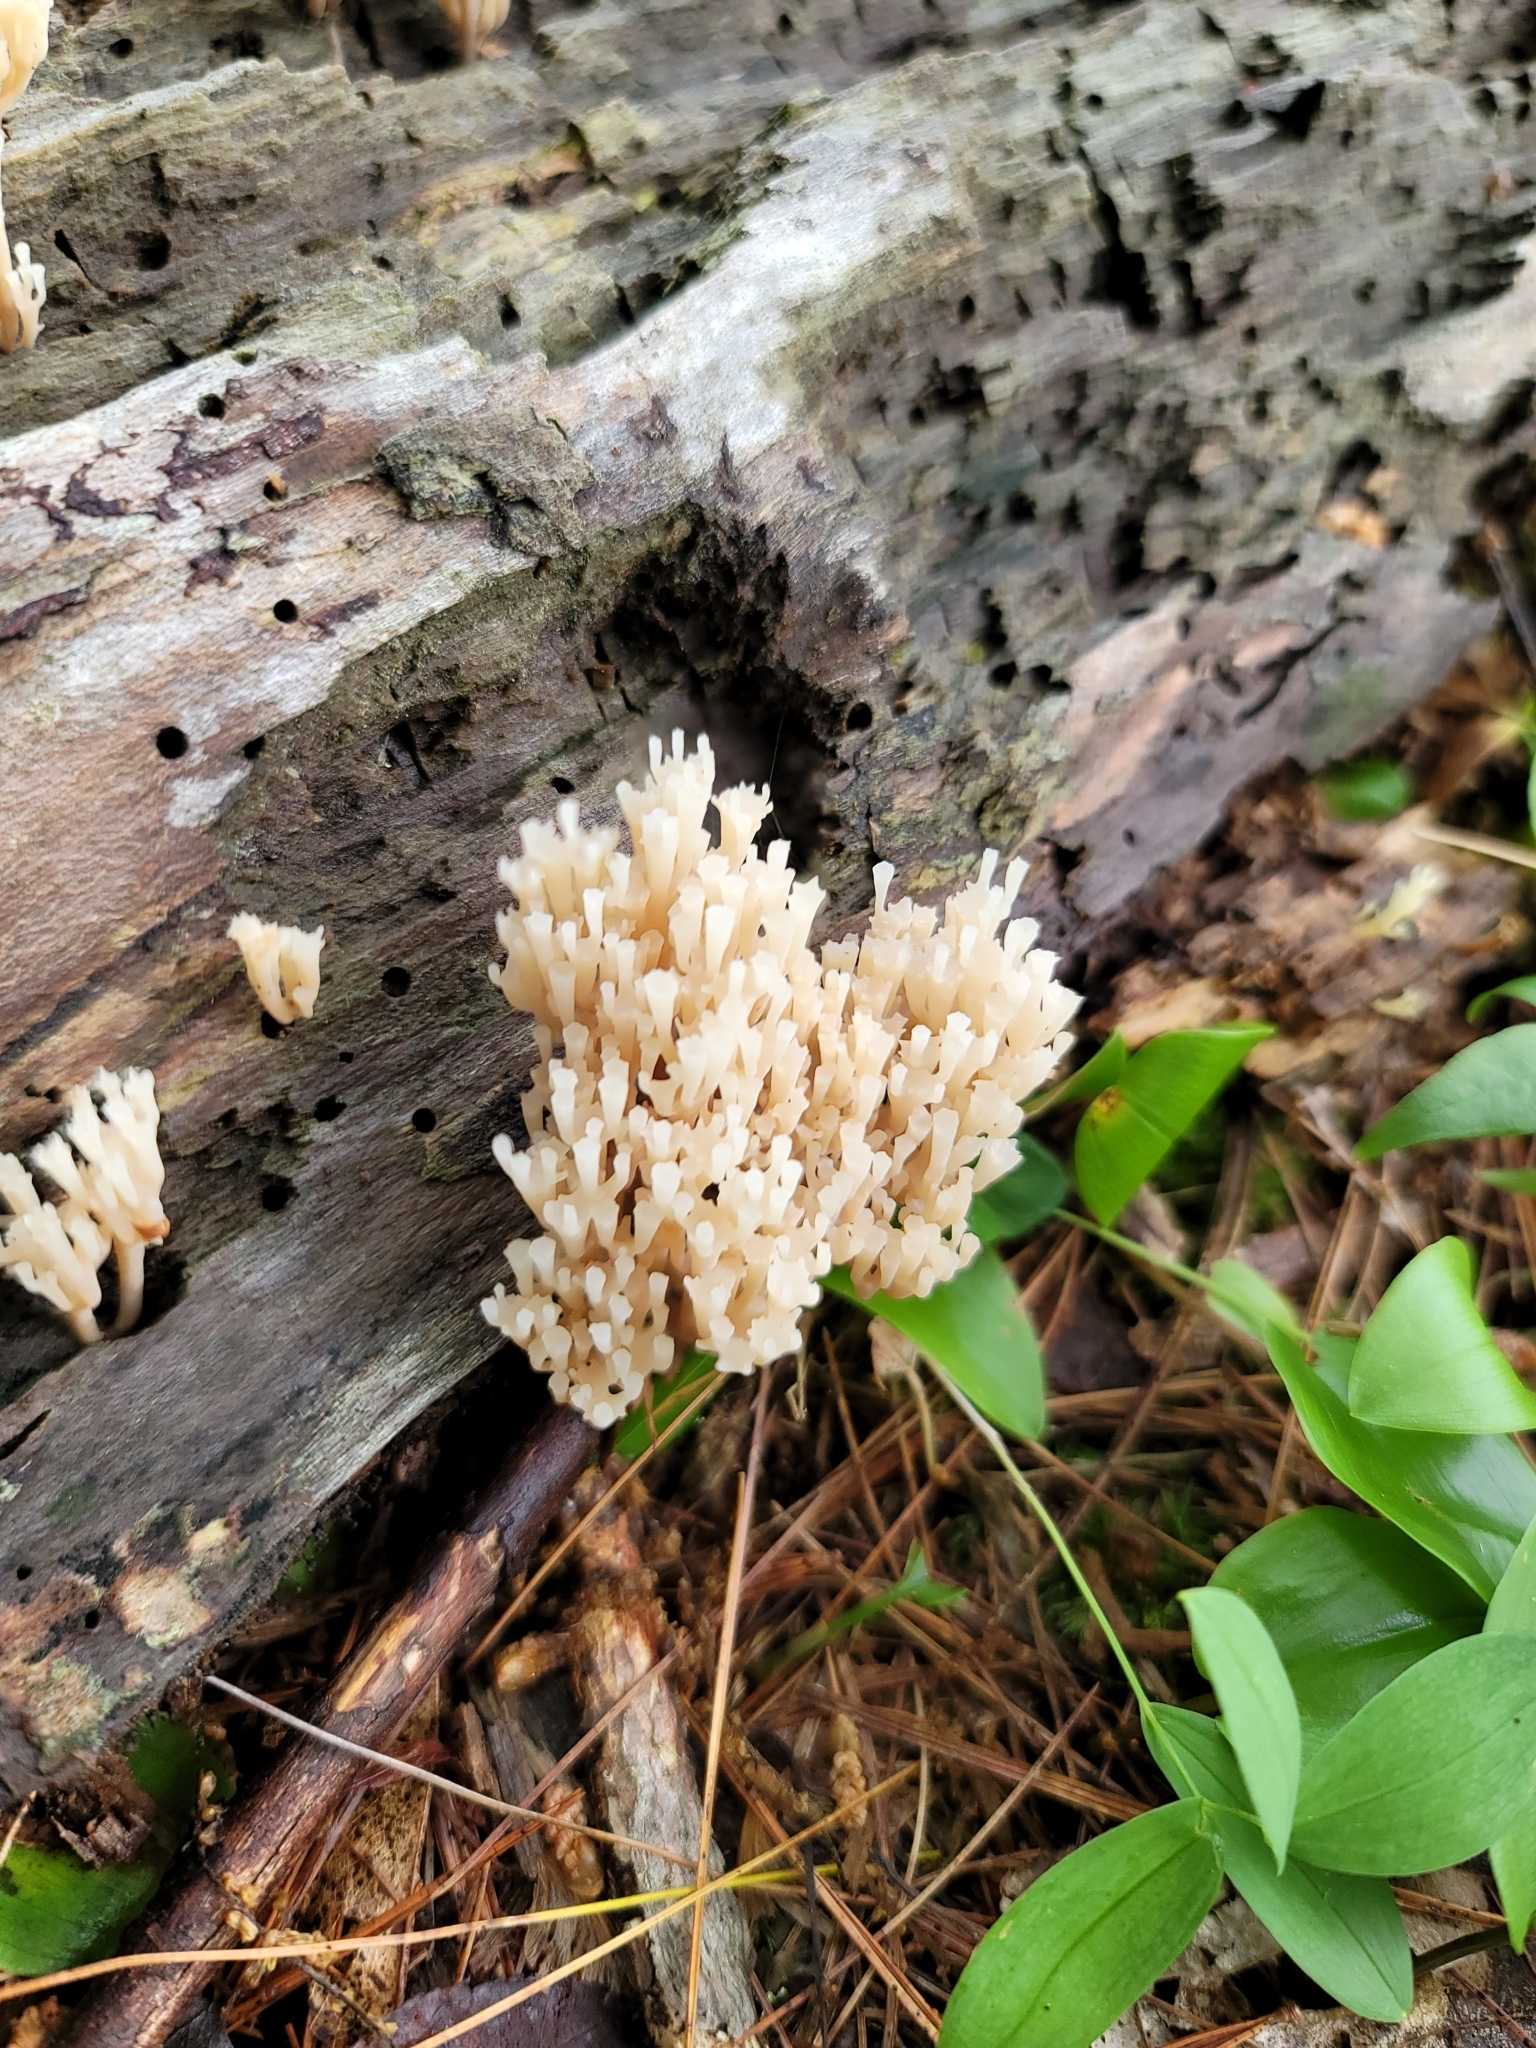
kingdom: Fungi
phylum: Basidiomycota
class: Agaricomycetes
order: Russulales
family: Auriscalpiaceae
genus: Artomyces
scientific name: Artomyces pyxidatus
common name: Crown-tipped coral fungus
